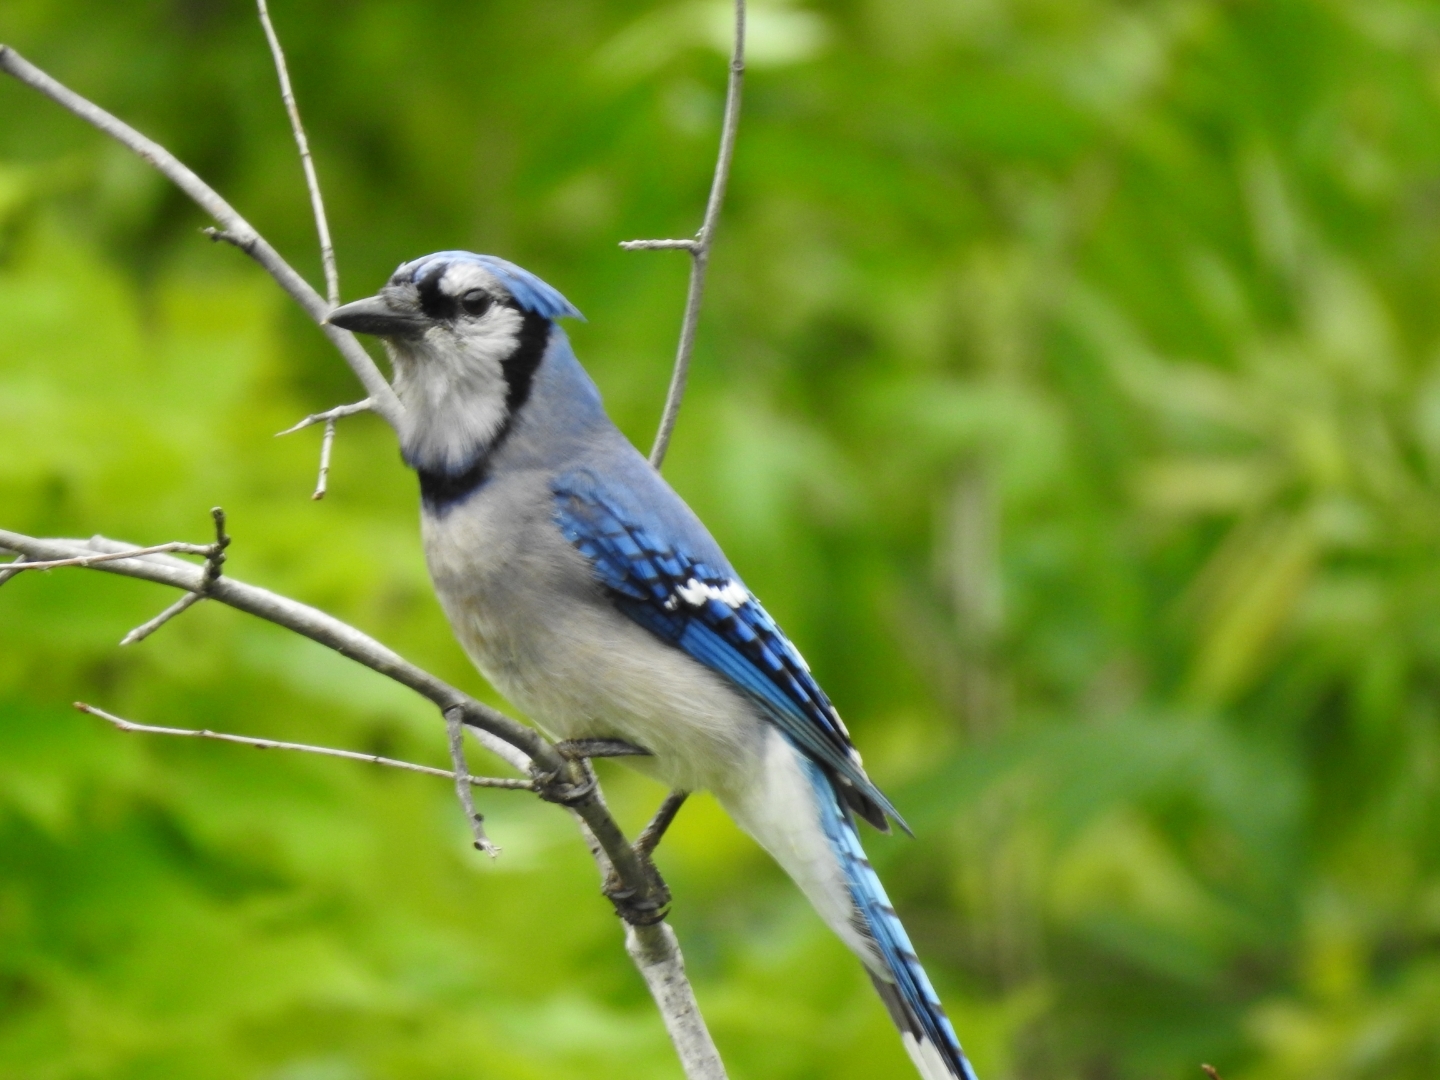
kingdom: Animalia
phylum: Chordata
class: Aves
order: Passeriformes
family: Corvidae
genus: Cyanocitta
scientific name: Cyanocitta cristata
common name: Blue jay
